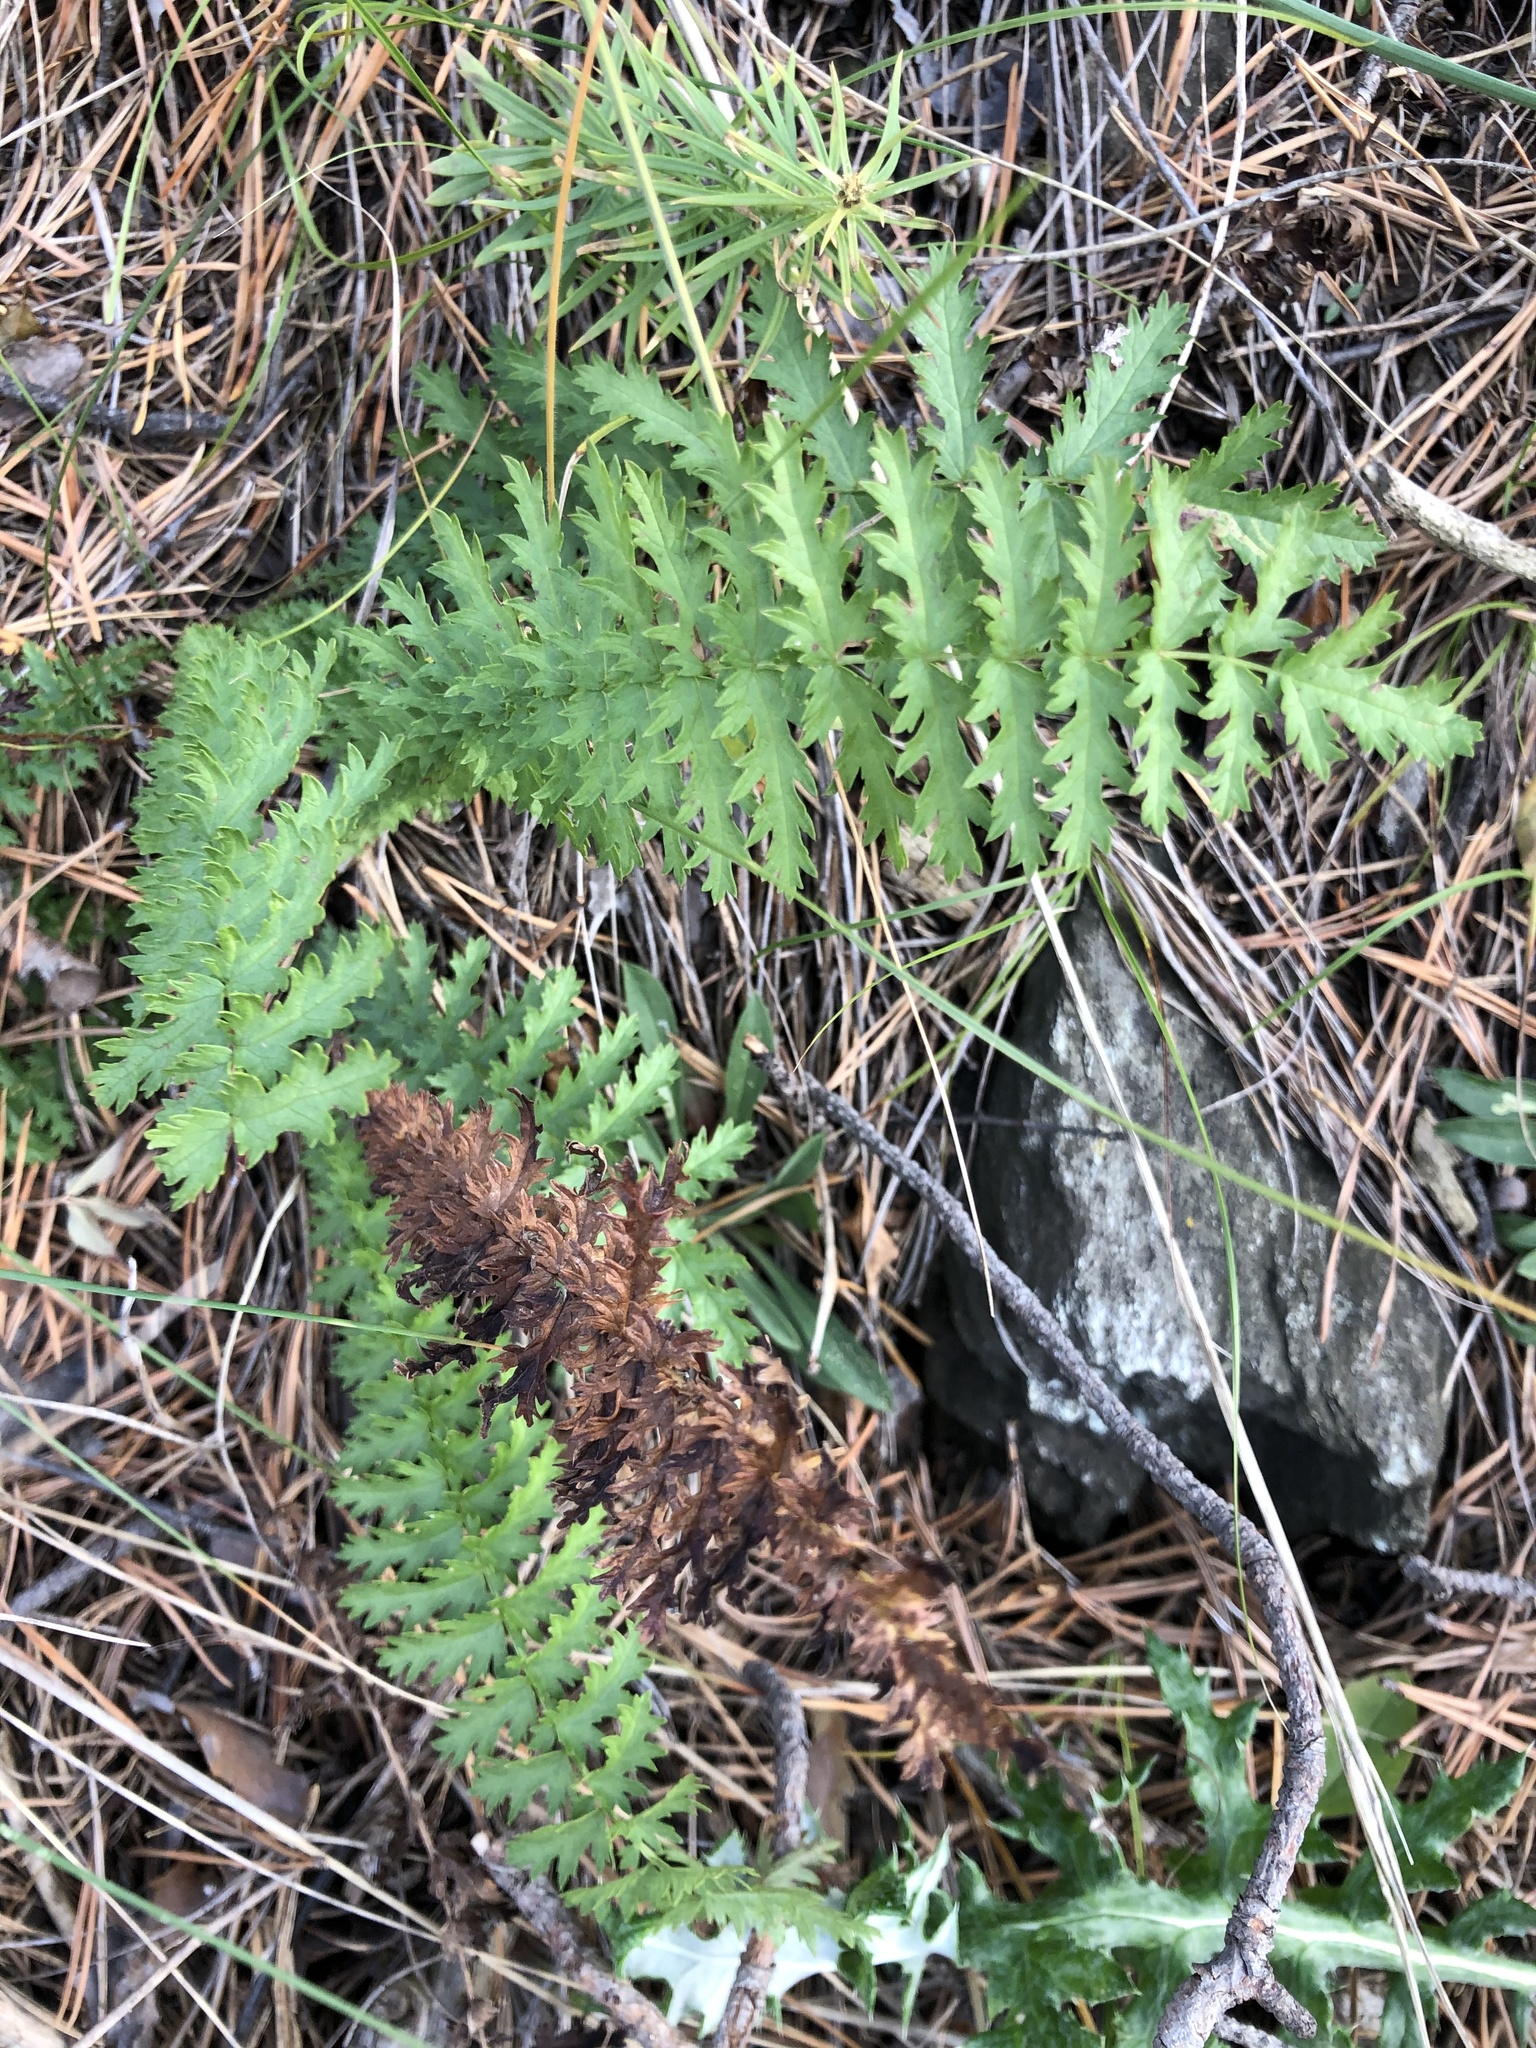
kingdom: Plantae
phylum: Tracheophyta
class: Magnoliopsida
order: Rosales
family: Rosaceae
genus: Filipendula
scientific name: Filipendula vulgaris
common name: Dropwort
